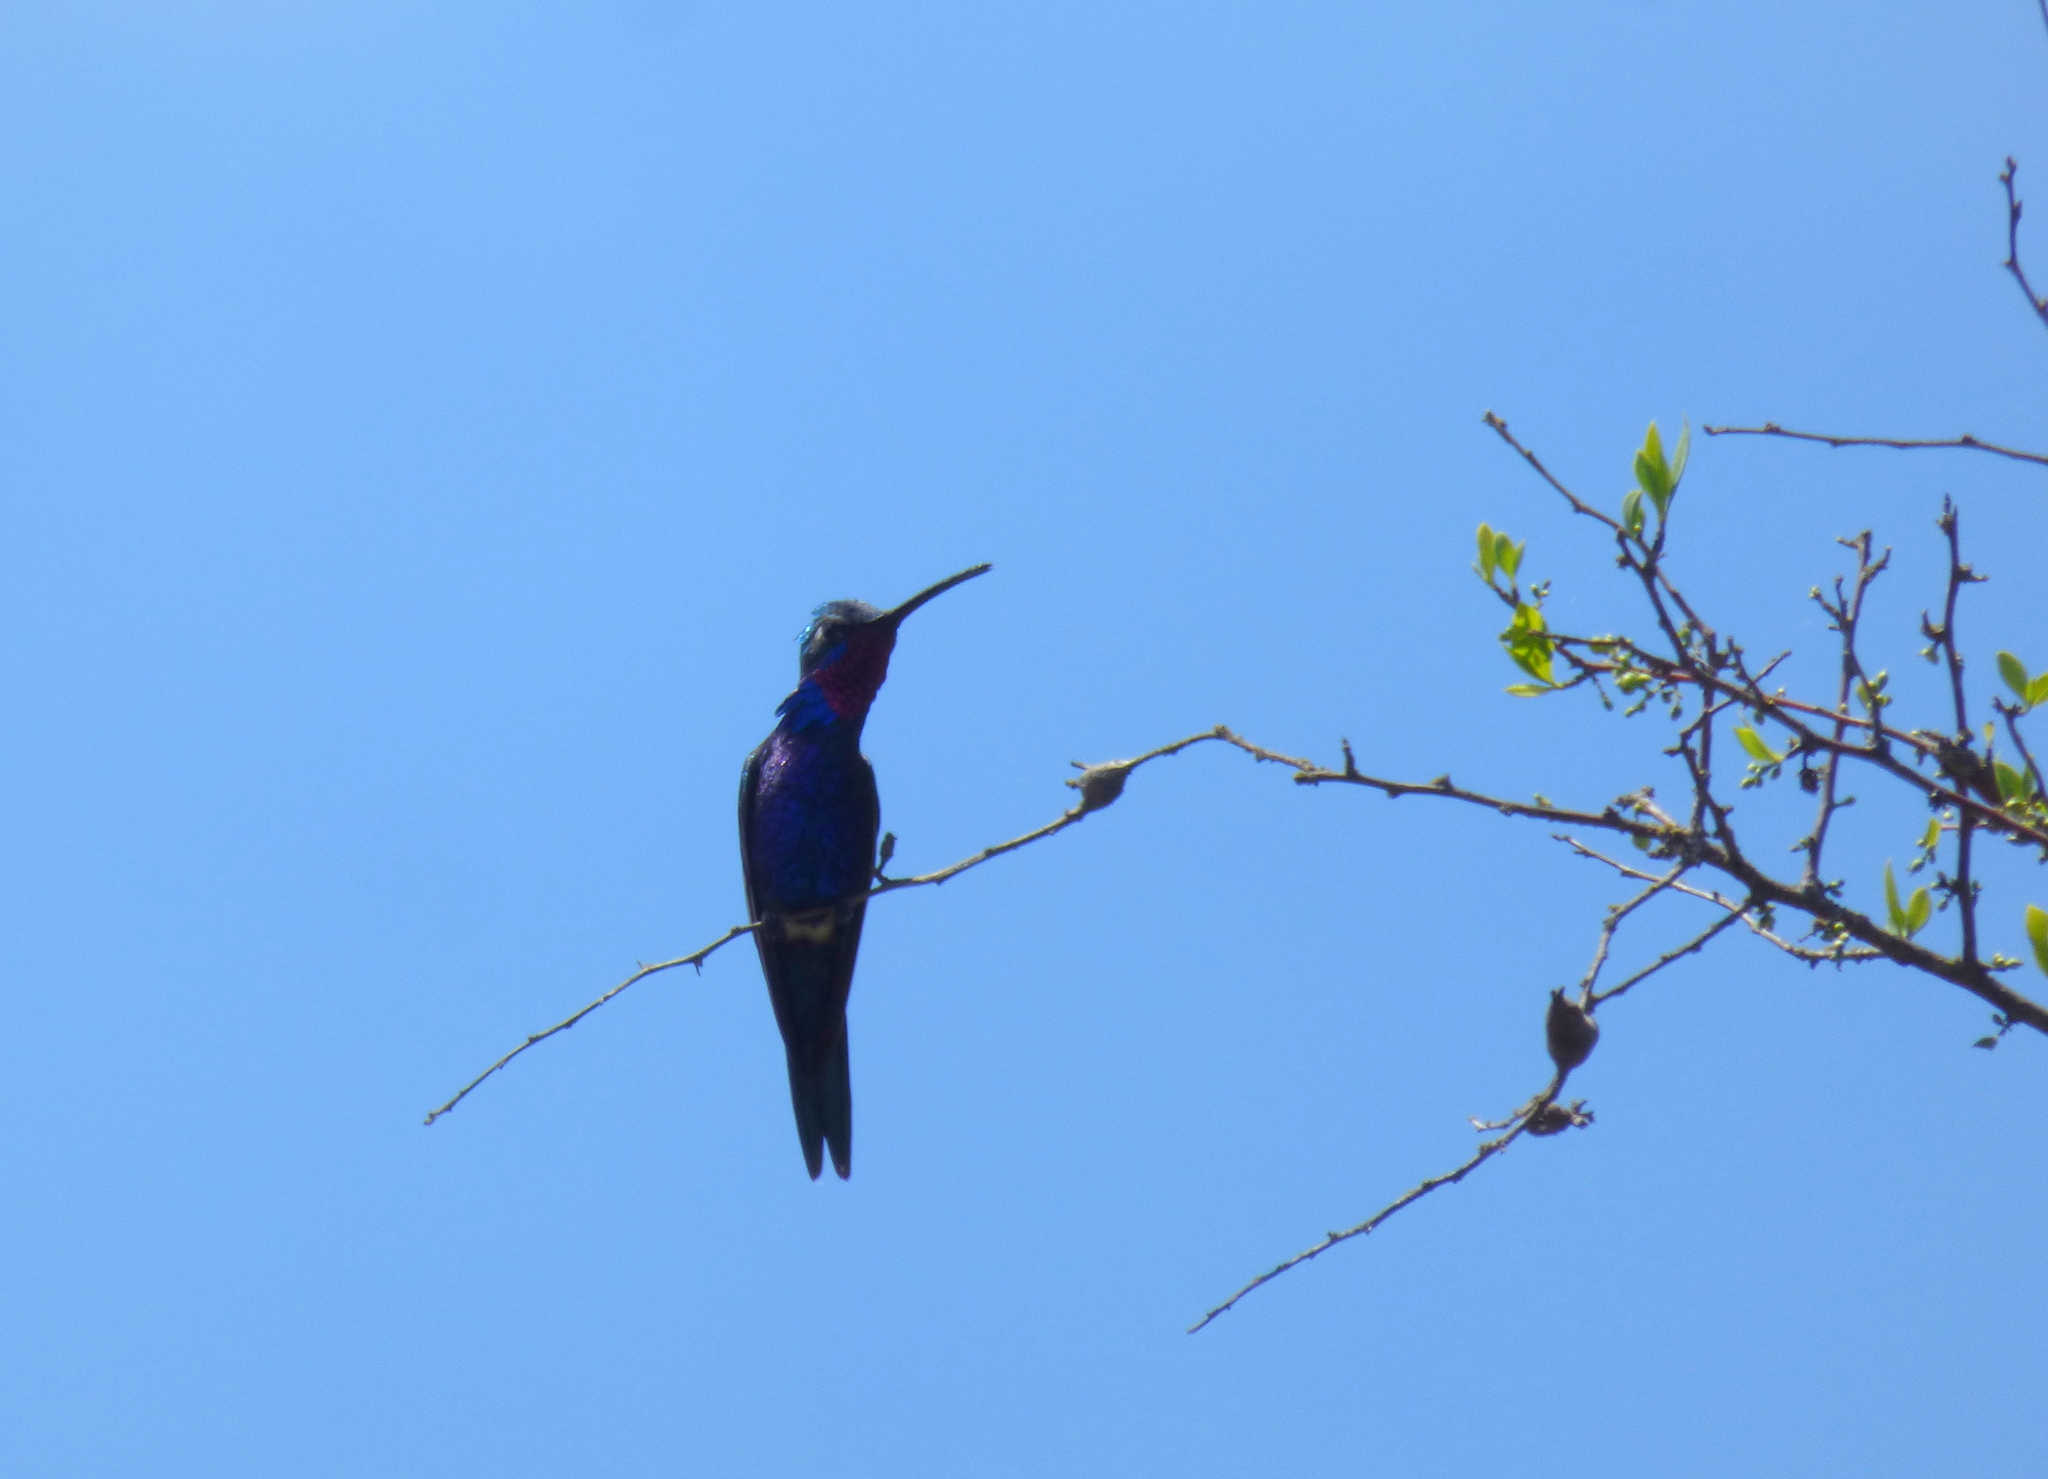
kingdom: Animalia
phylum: Chordata
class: Aves
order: Apodiformes
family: Trochilidae
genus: Heliomaster
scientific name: Heliomaster furcifer
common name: Blue-tufted starthroat
